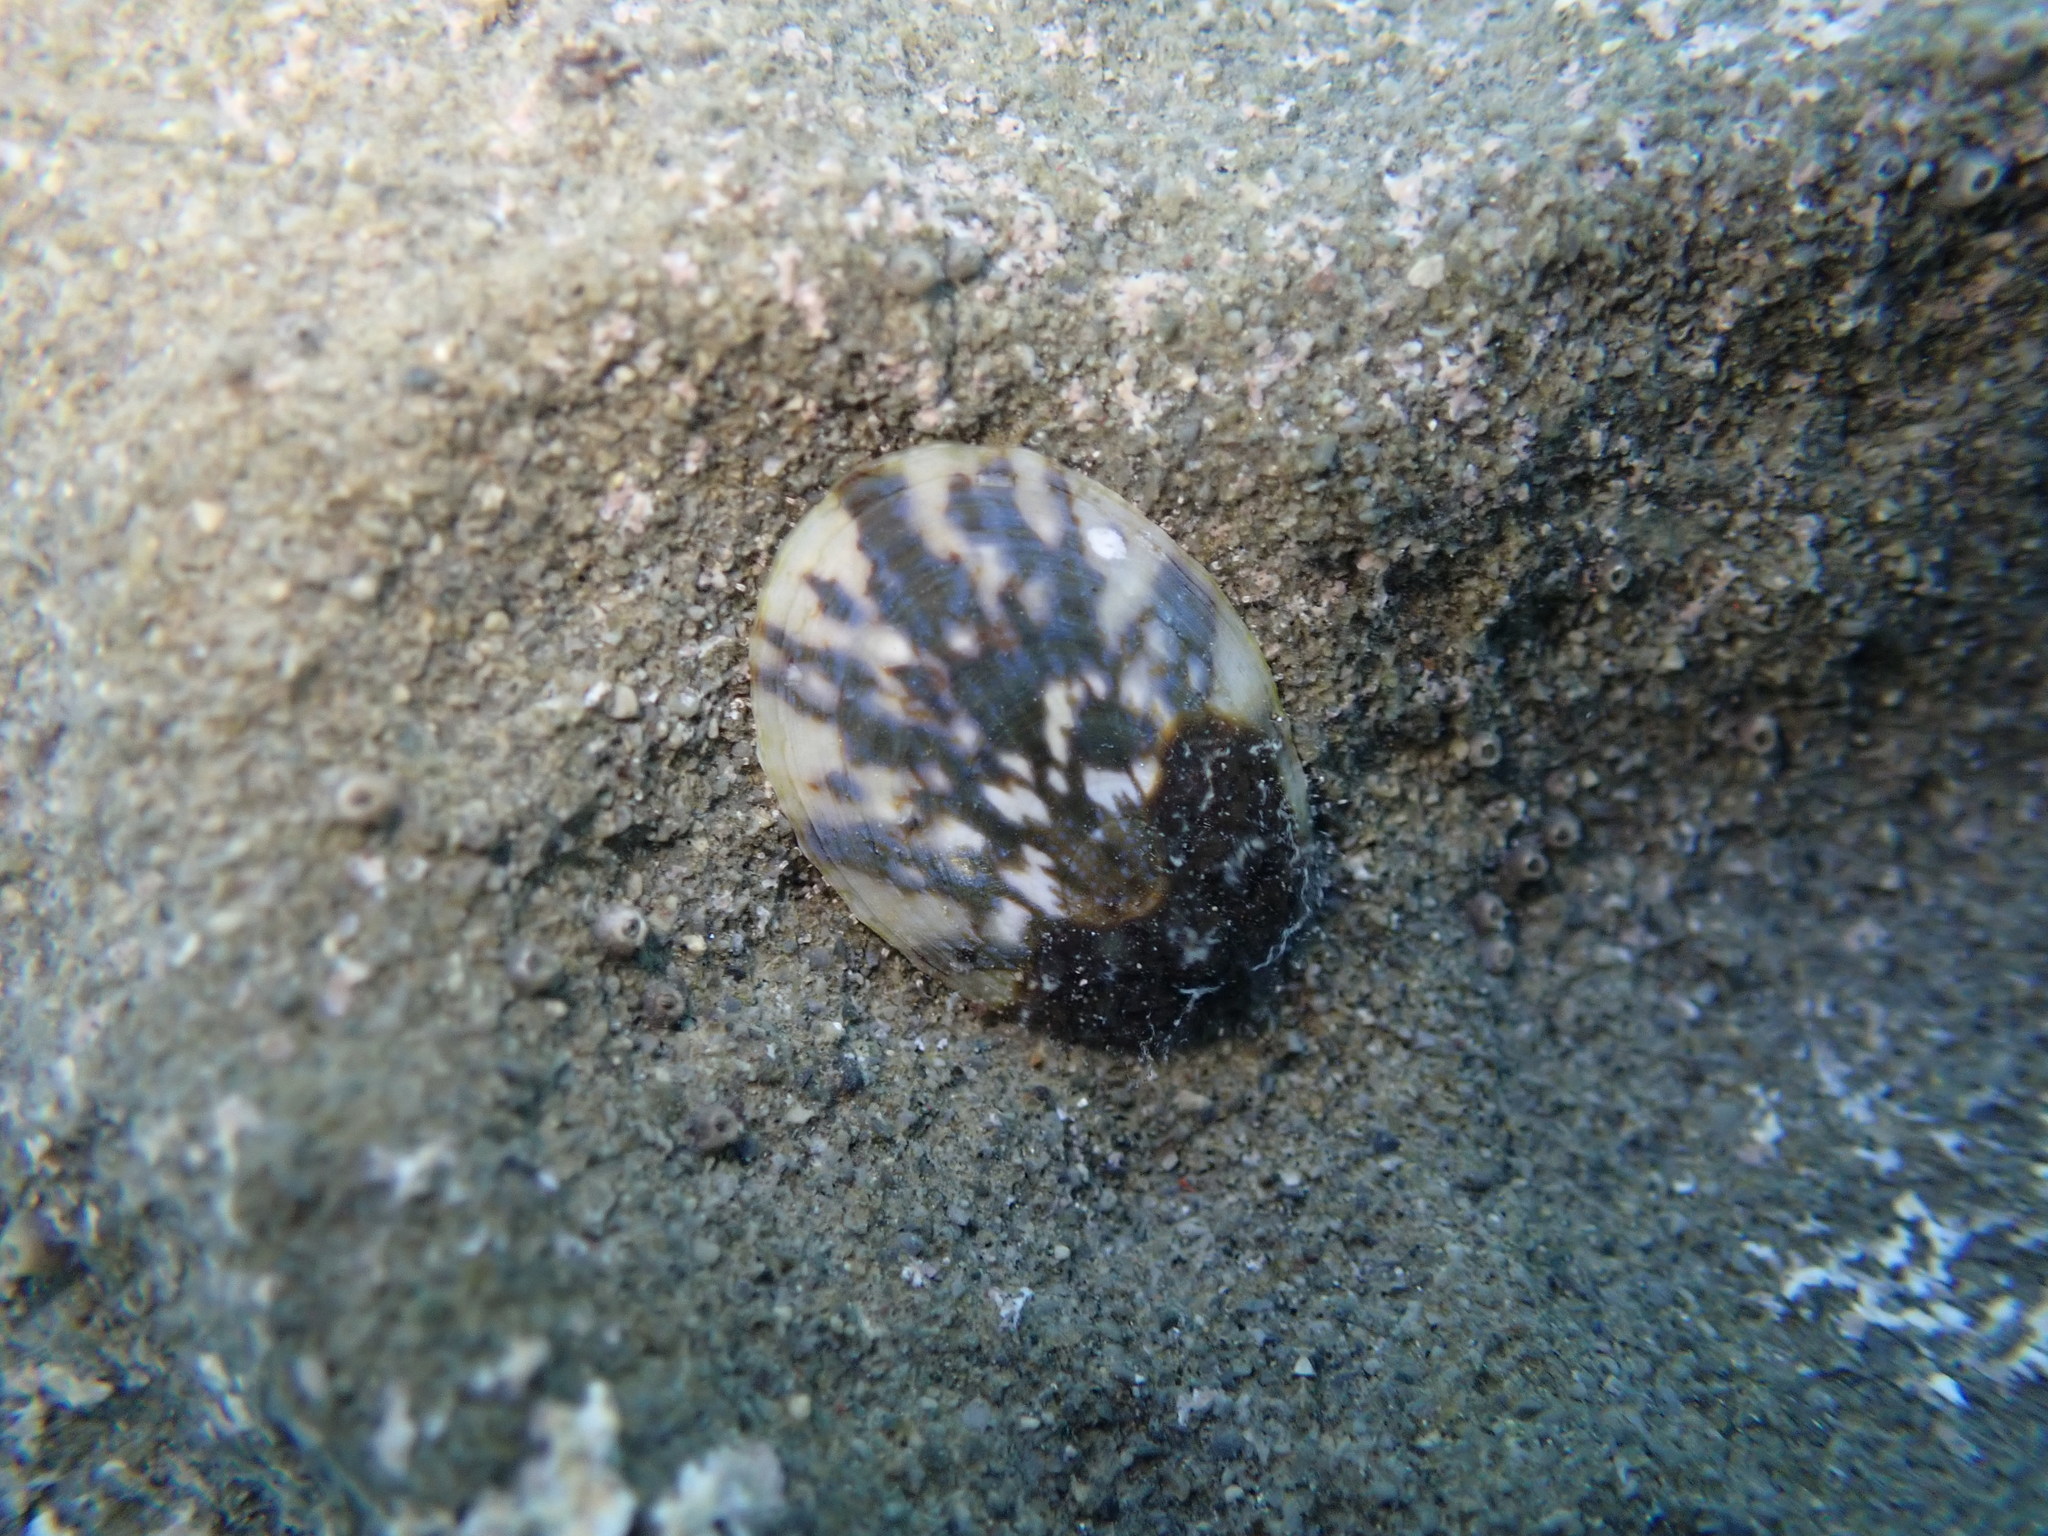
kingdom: Animalia
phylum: Mollusca
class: Gastropoda
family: Nacellidae
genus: Cellana
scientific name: Cellana radians
